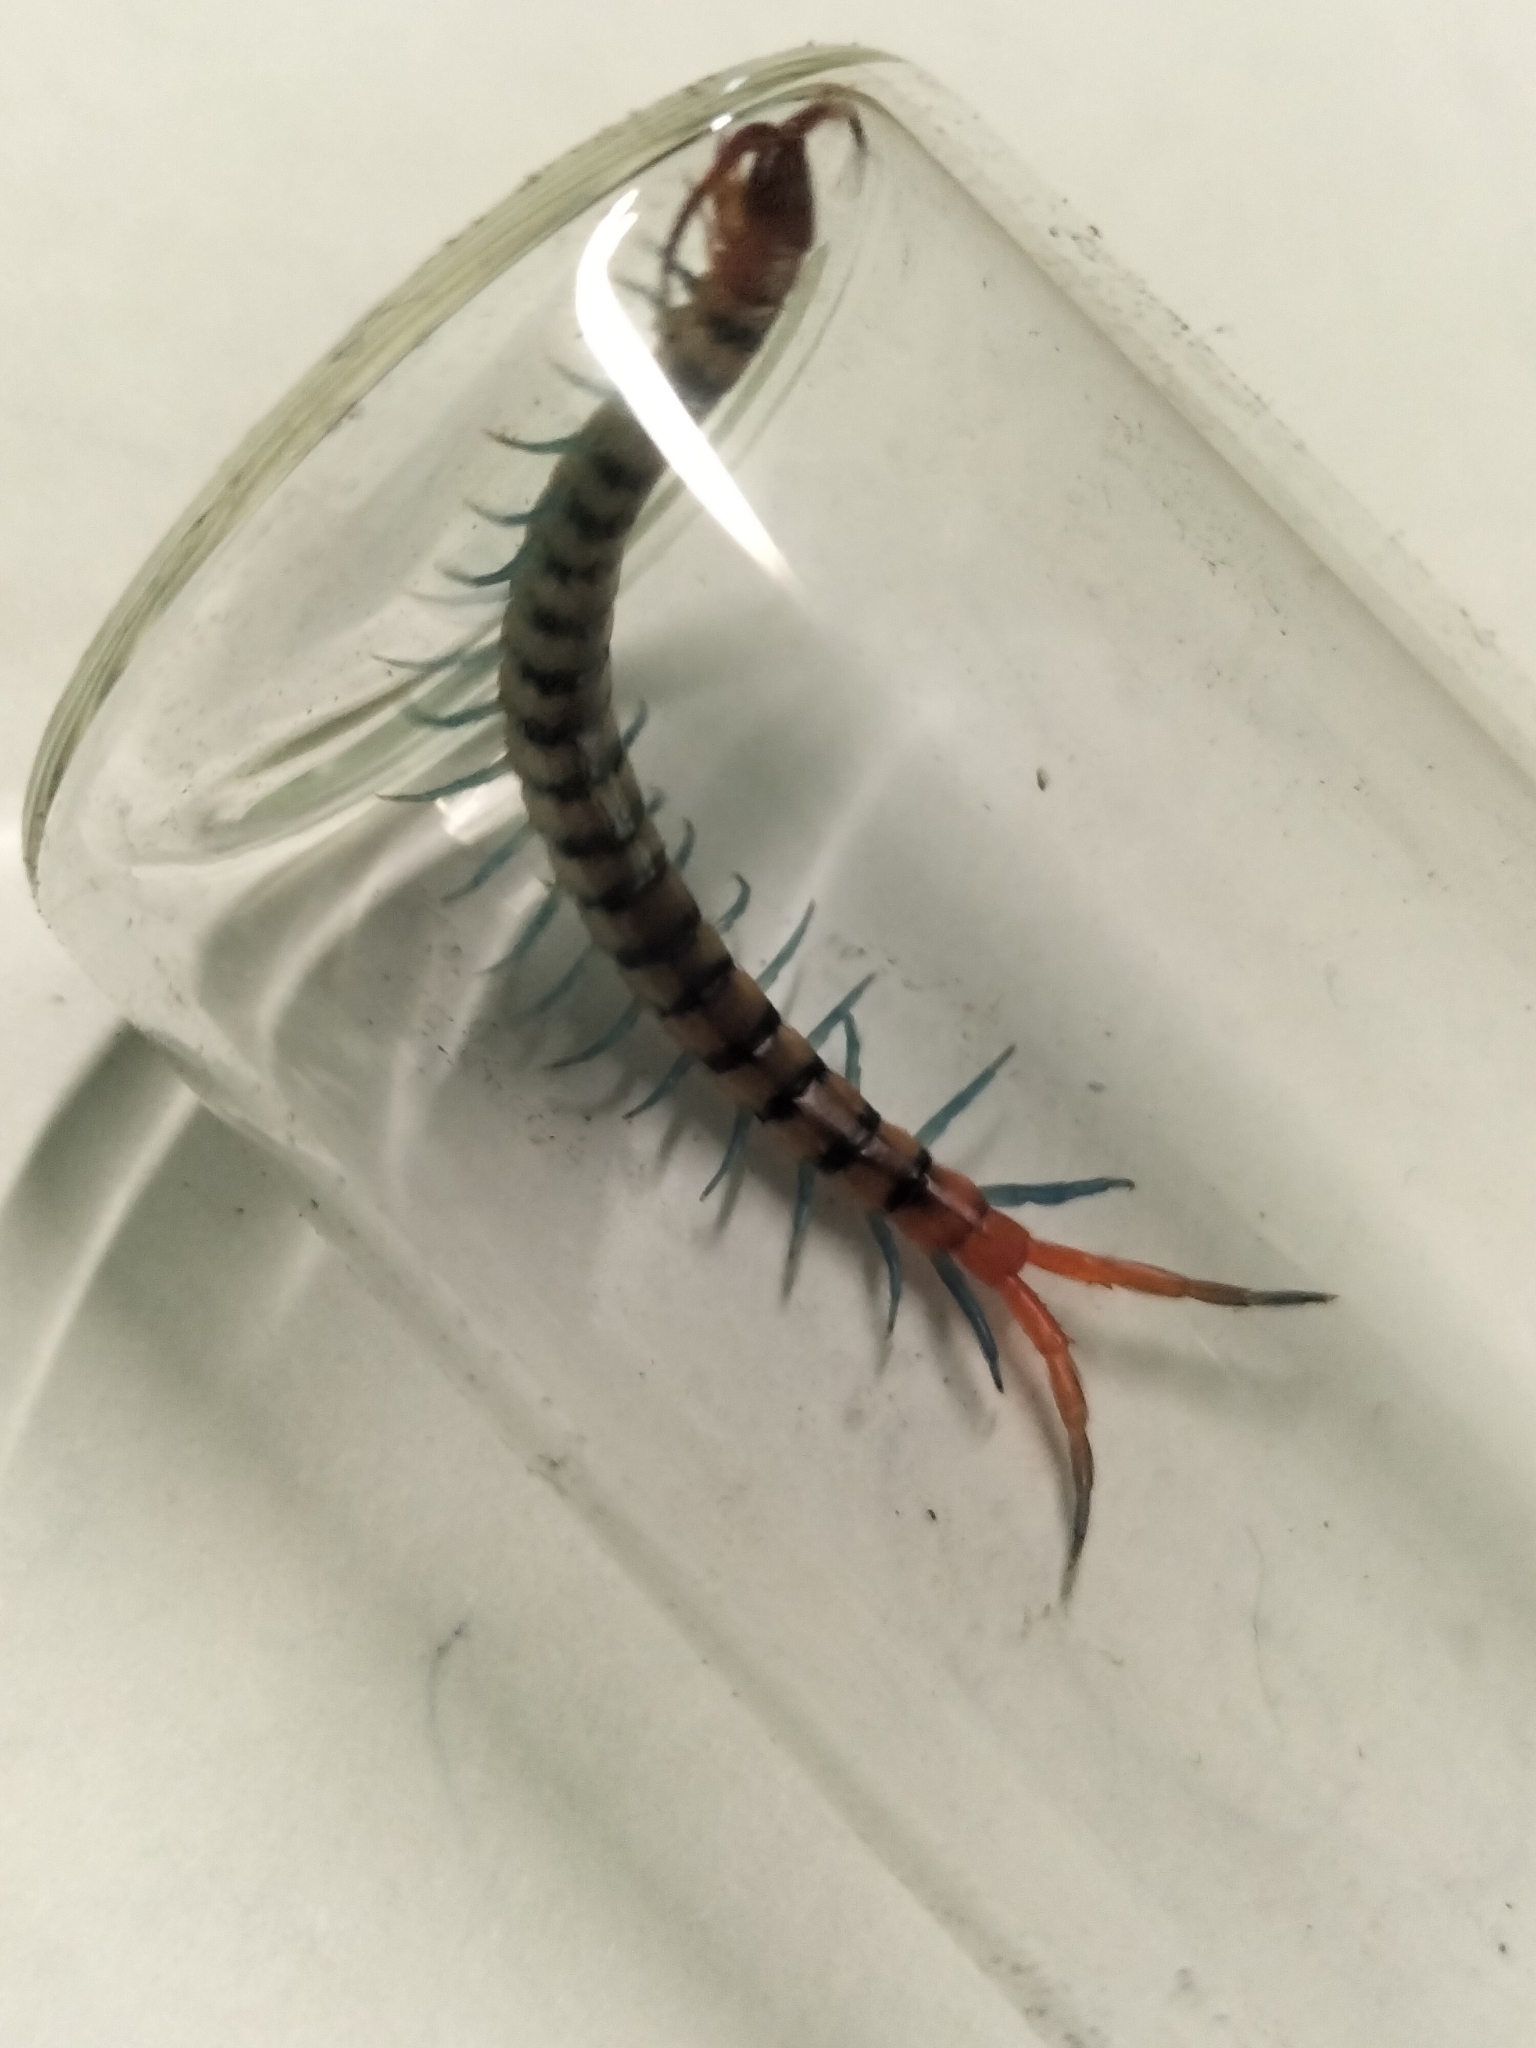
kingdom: Animalia
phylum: Arthropoda
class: Chilopoda
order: Scolopendromorpha
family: Scolopendridae
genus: Scolopendra
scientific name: Scolopendra morsitans
